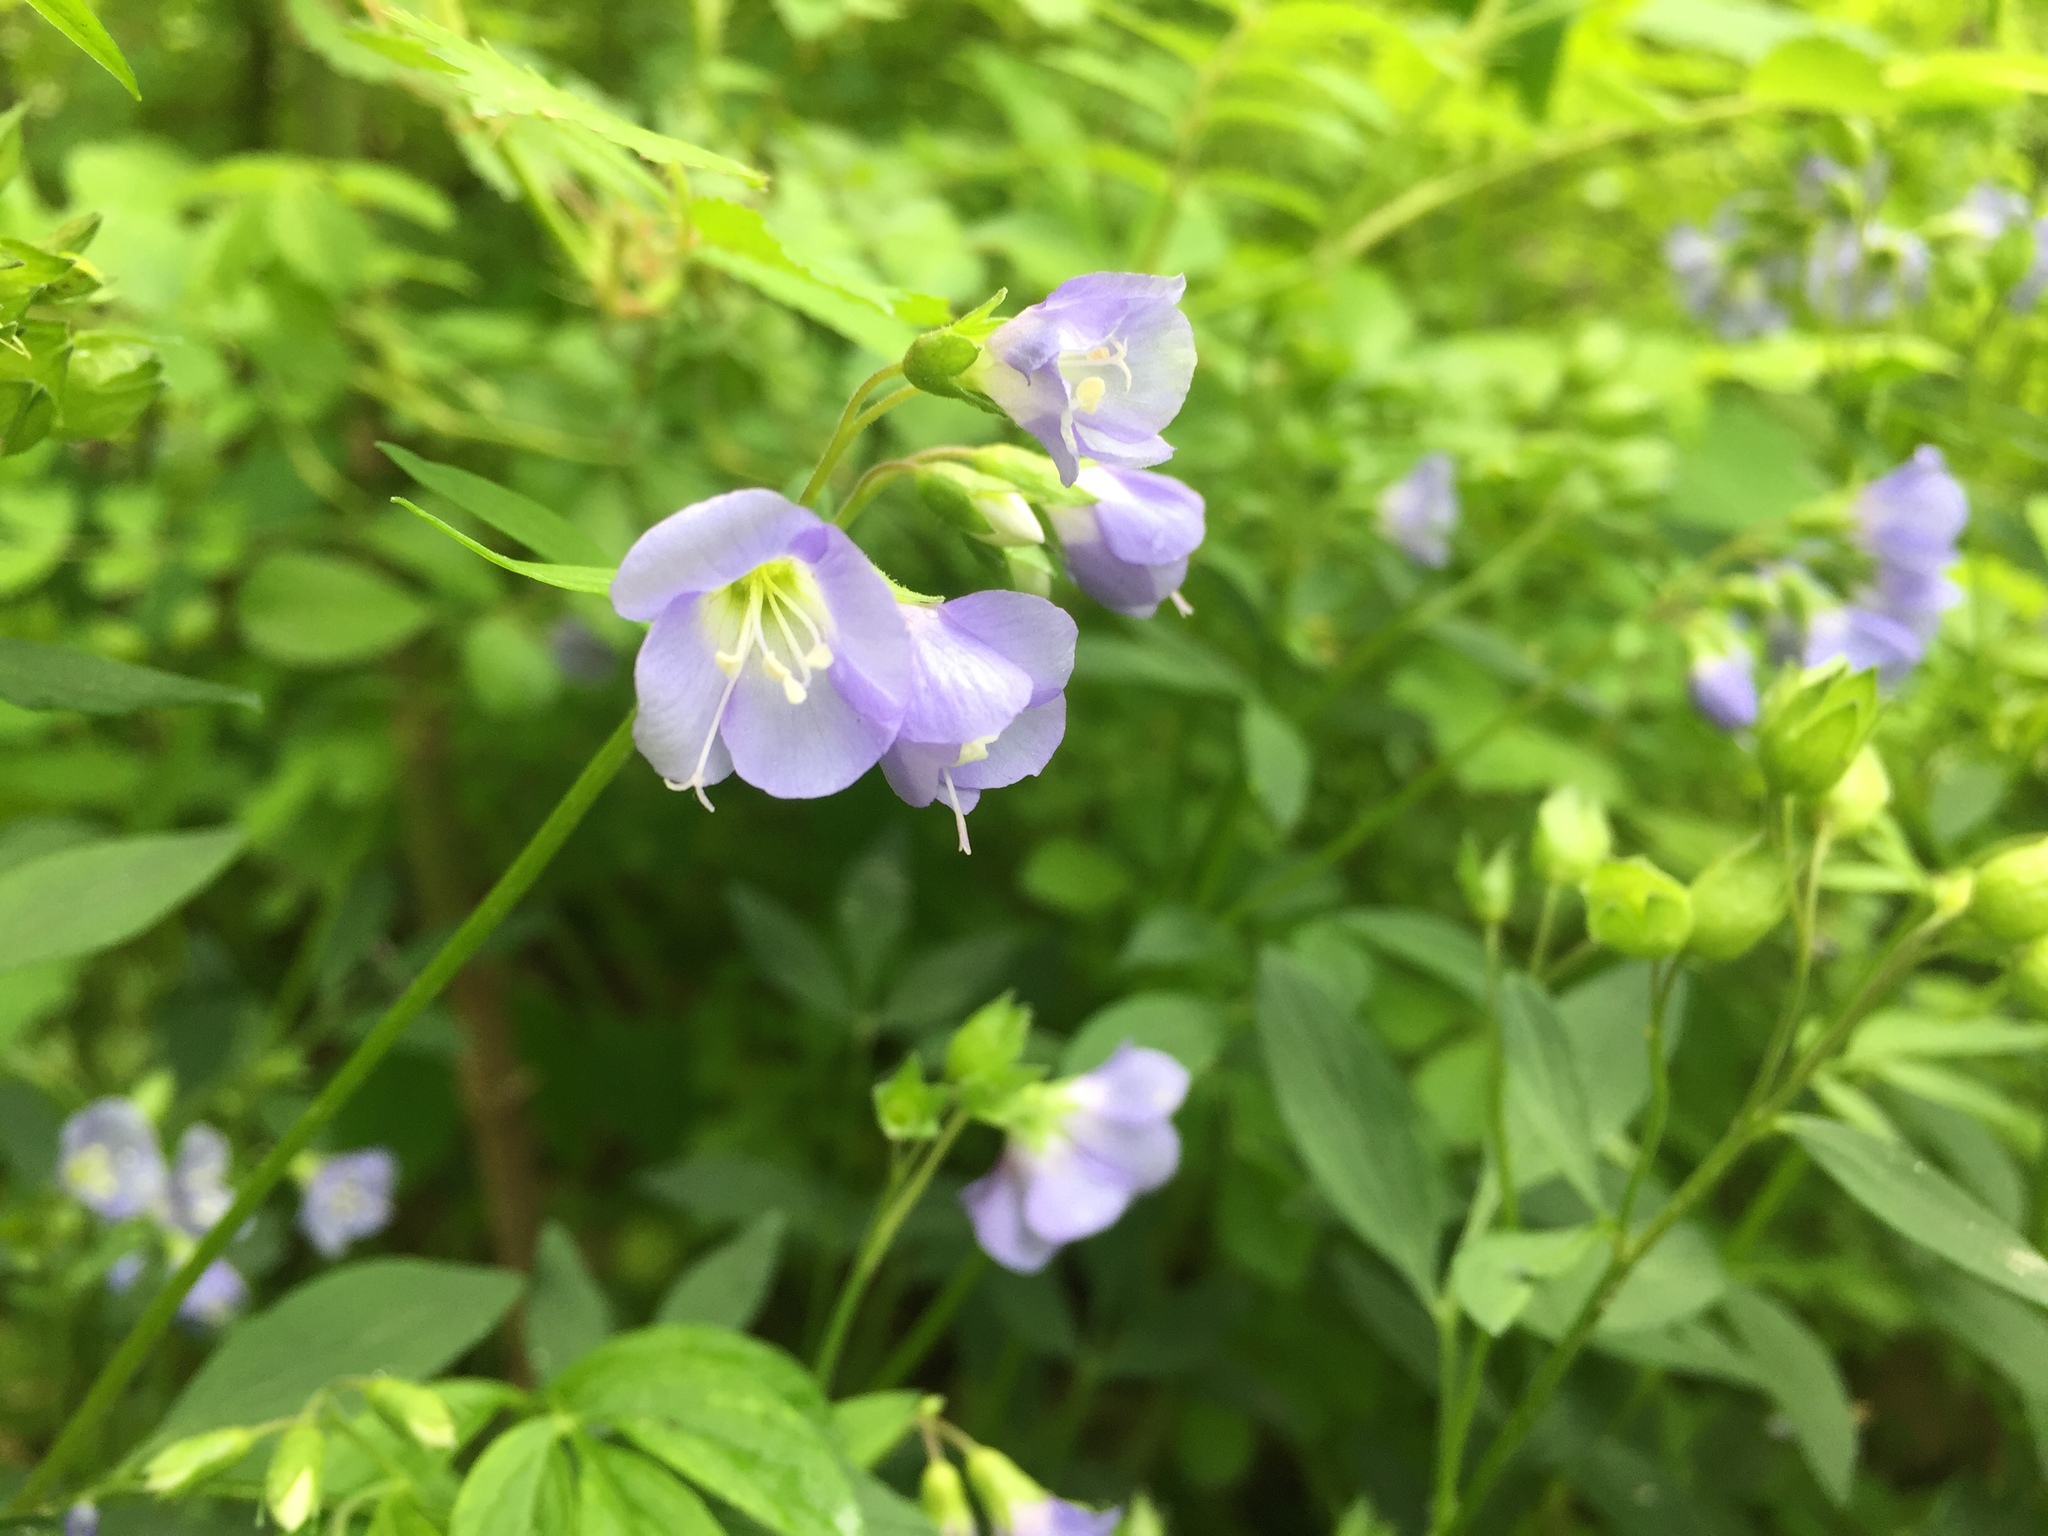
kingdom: Plantae
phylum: Tracheophyta
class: Magnoliopsida
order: Ericales
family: Polemoniaceae
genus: Polemonium
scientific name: Polemonium reptans
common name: Creeping jacob's-ladder
